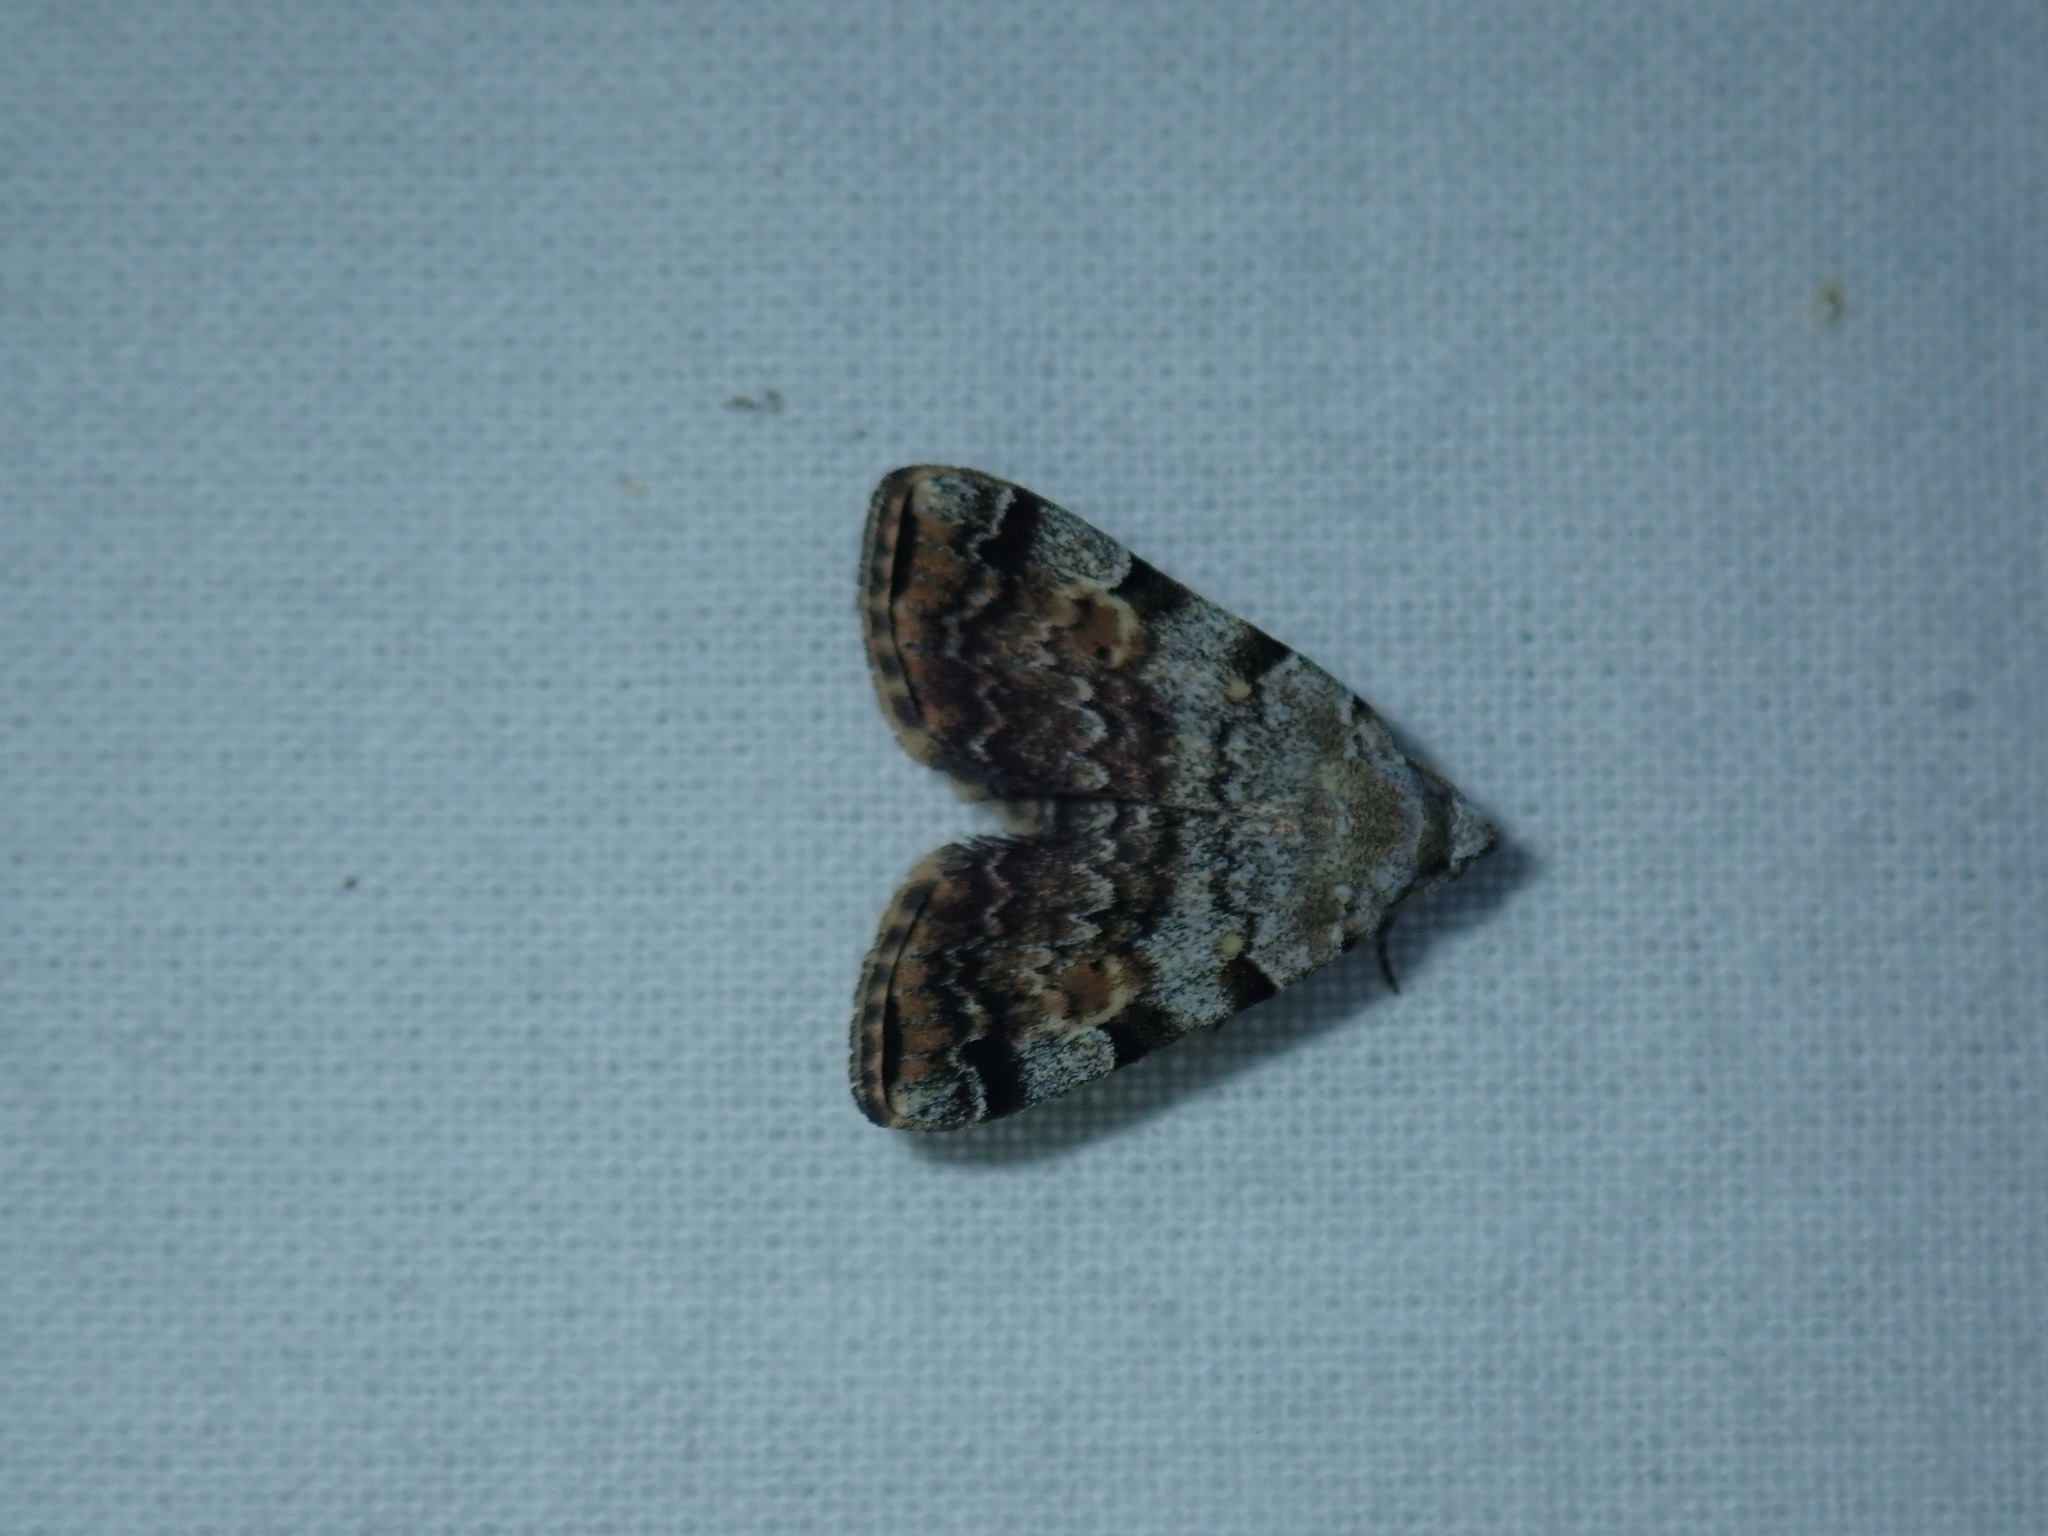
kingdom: Animalia
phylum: Arthropoda
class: Insecta
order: Lepidoptera
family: Erebidae
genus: Idia
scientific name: Idia americalis
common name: American idia moth
